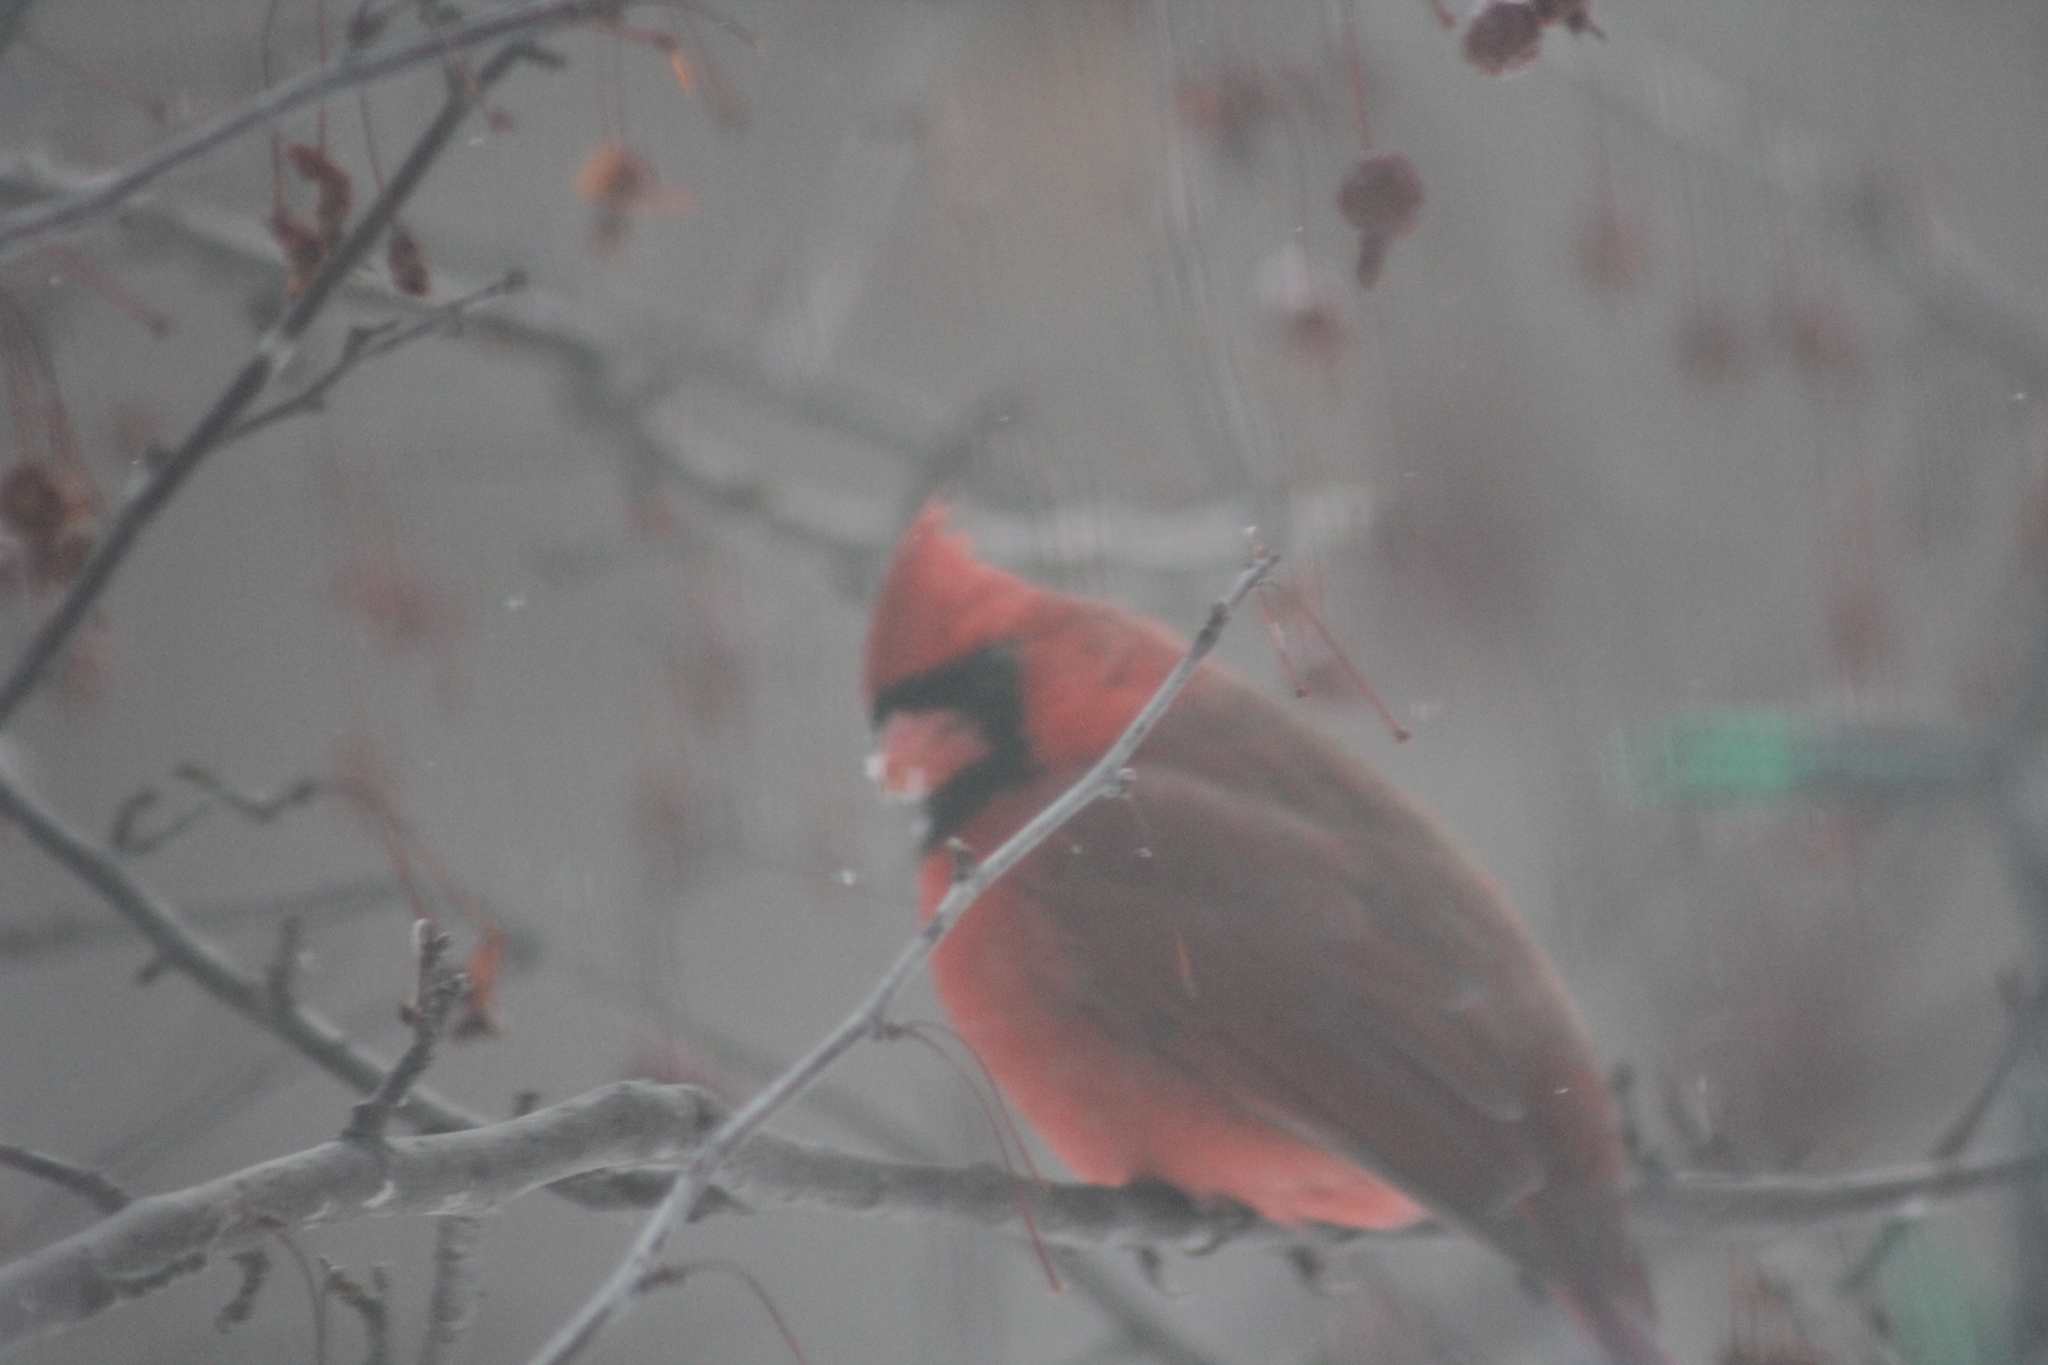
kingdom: Animalia
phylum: Chordata
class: Aves
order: Passeriformes
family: Cardinalidae
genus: Cardinalis
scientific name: Cardinalis cardinalis
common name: Northern cardinal
